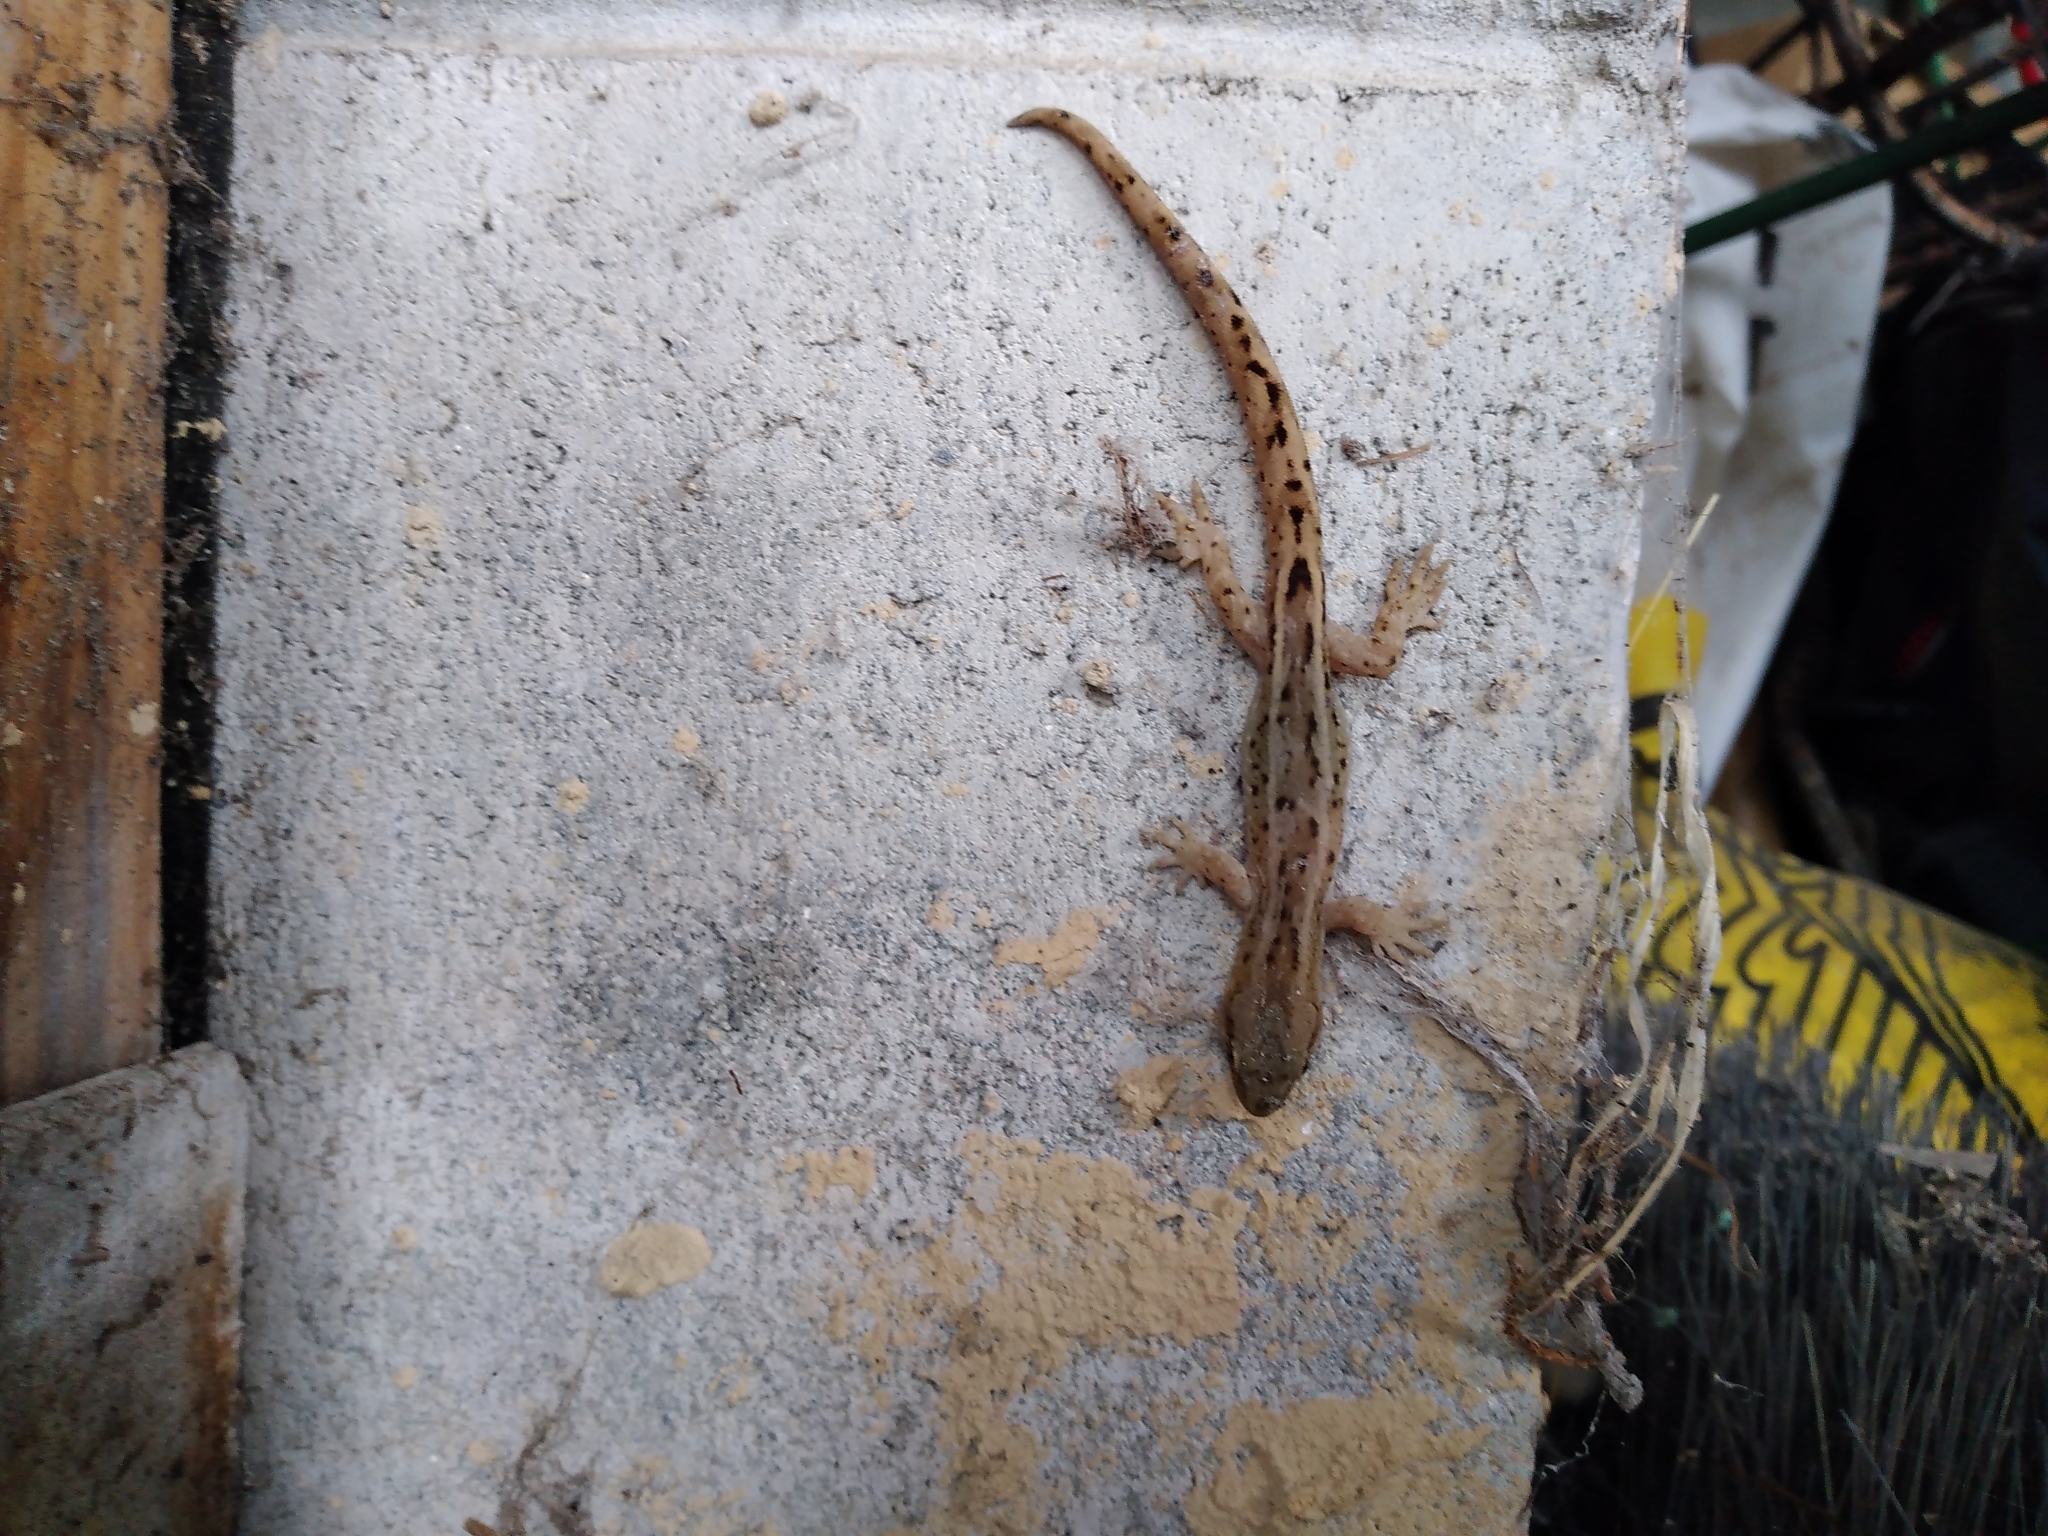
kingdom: Animalia
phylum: Chordata
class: Squamata
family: Diplodactylidae
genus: Woodworthia
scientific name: Woodworthia maculata
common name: Raukawa gecko
